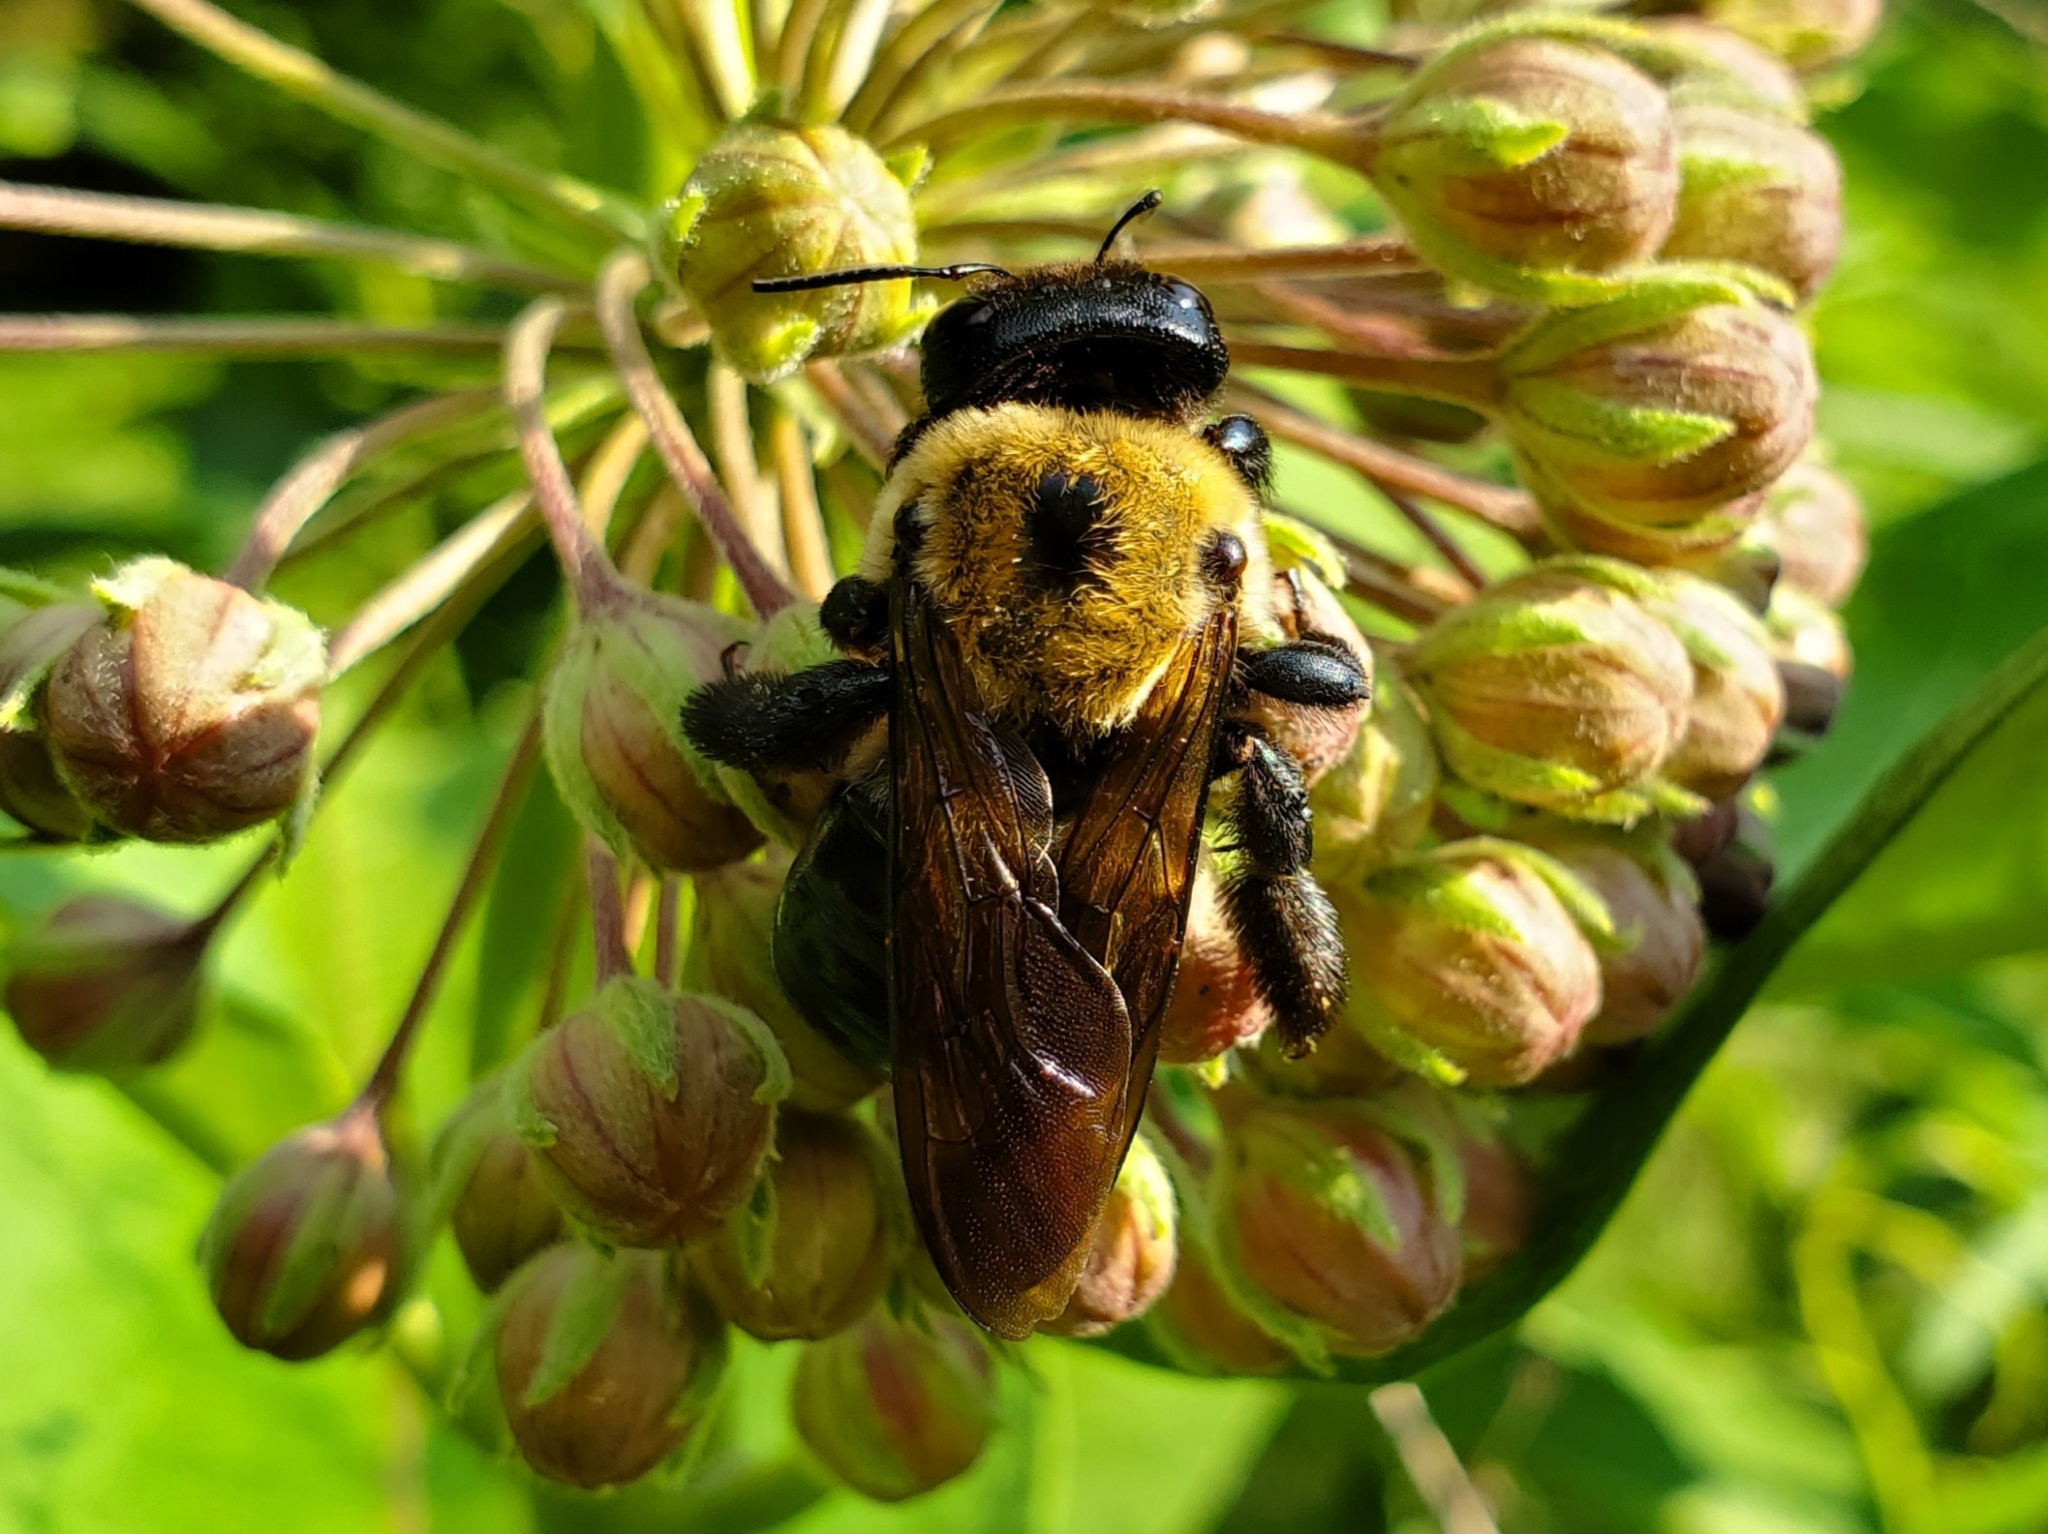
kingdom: Animalia
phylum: Arthropoda
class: Insecta
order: Hymenoptera
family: Apidae
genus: Xylocopa
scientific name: Xylocopa virginica
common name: Carpenter bee
